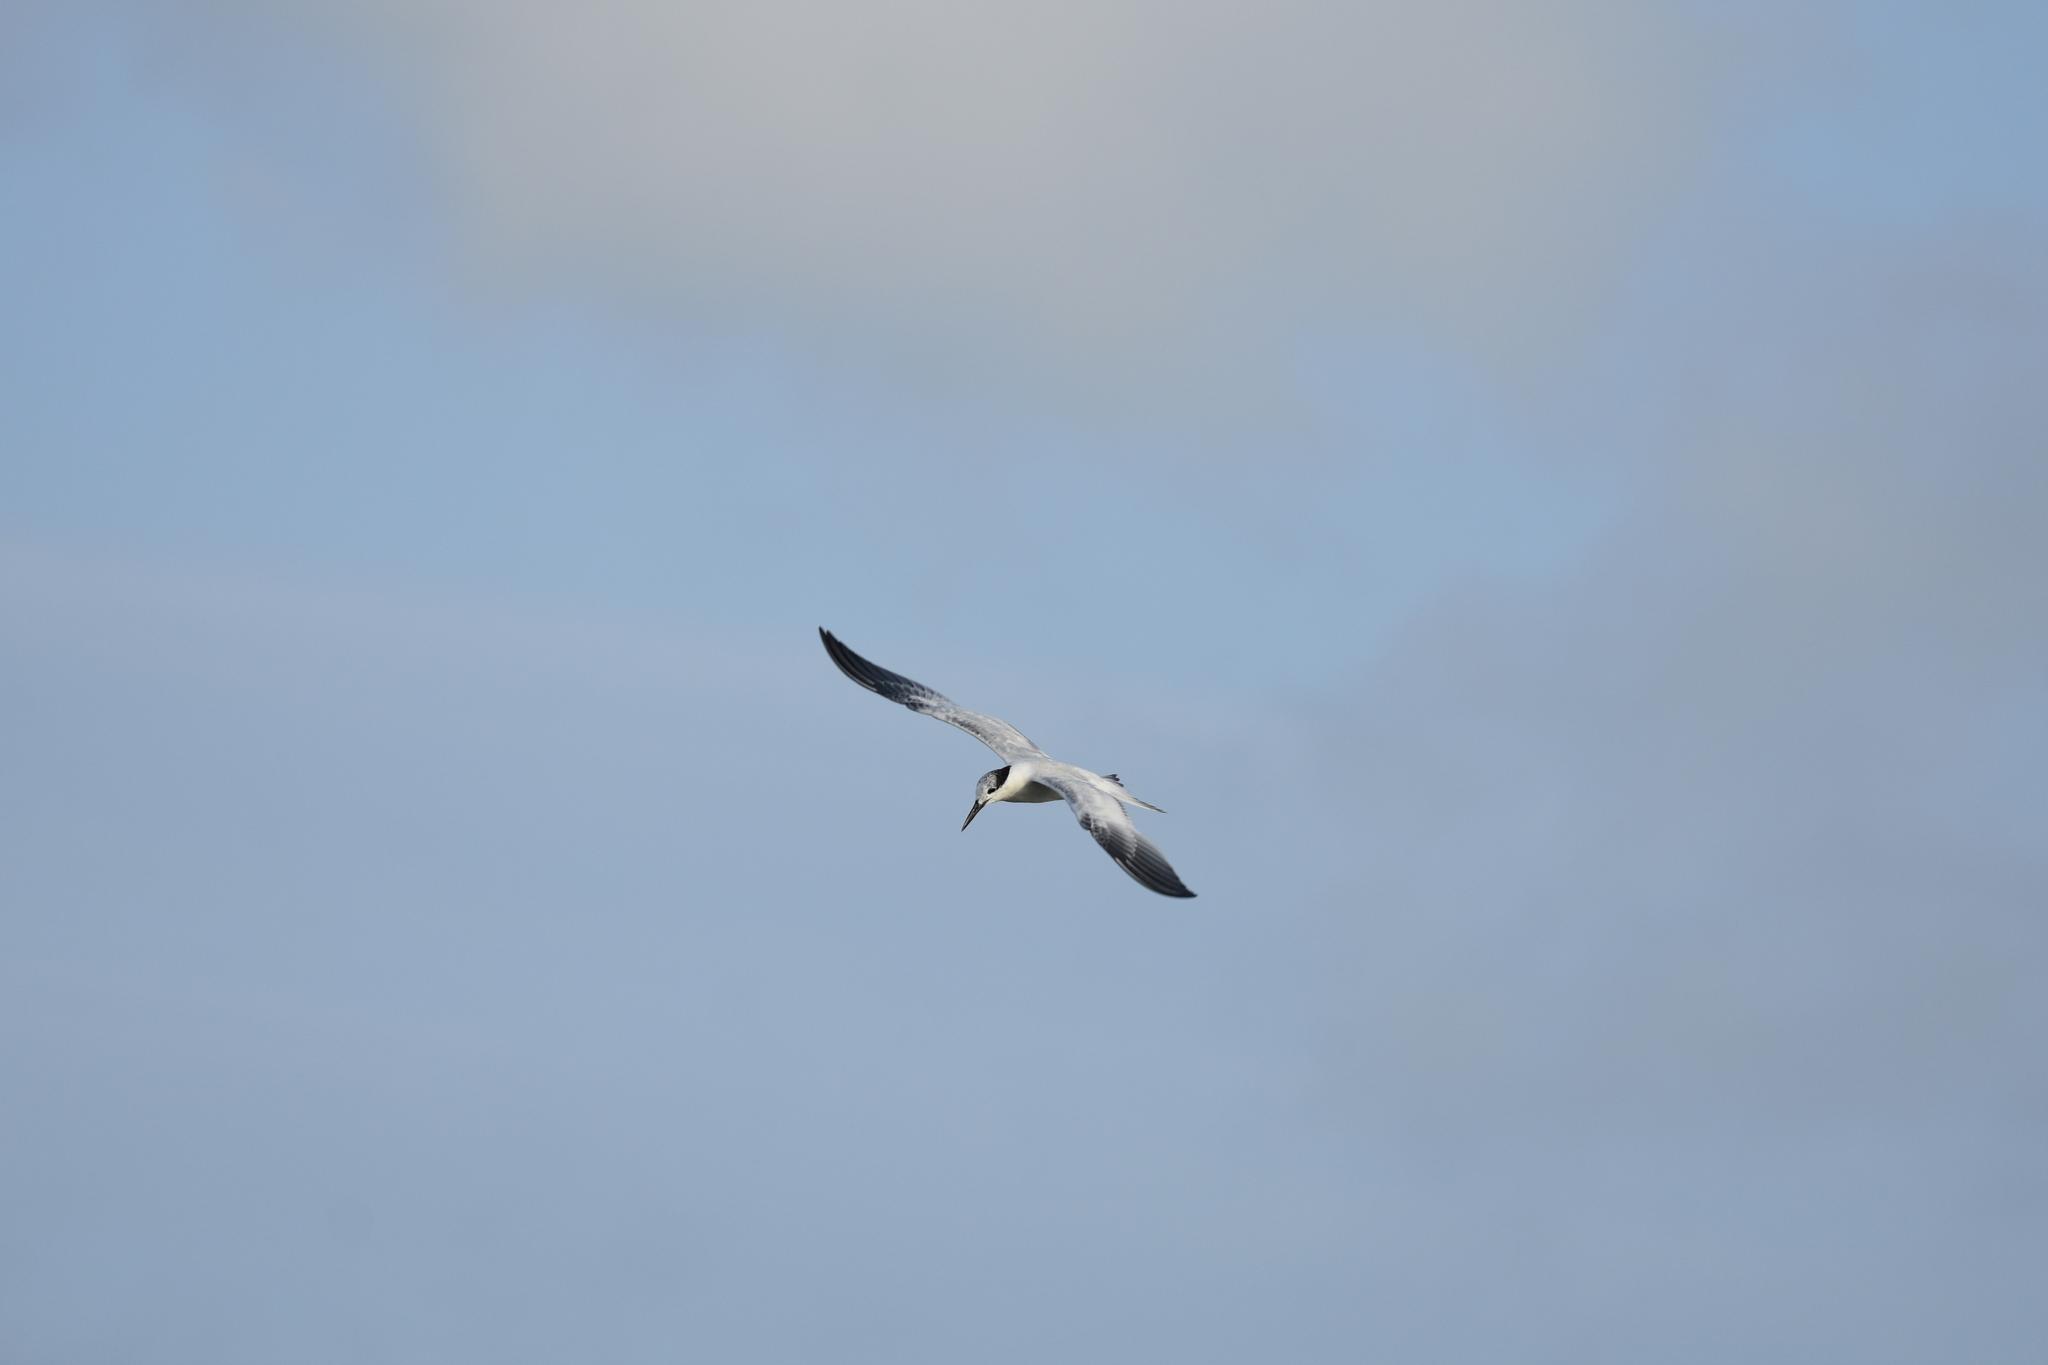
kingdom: Animalia
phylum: Chordata
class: Aves
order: Charadriiformes
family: Laridae
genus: Sternula
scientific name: Sternula antillarum
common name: Least tern
